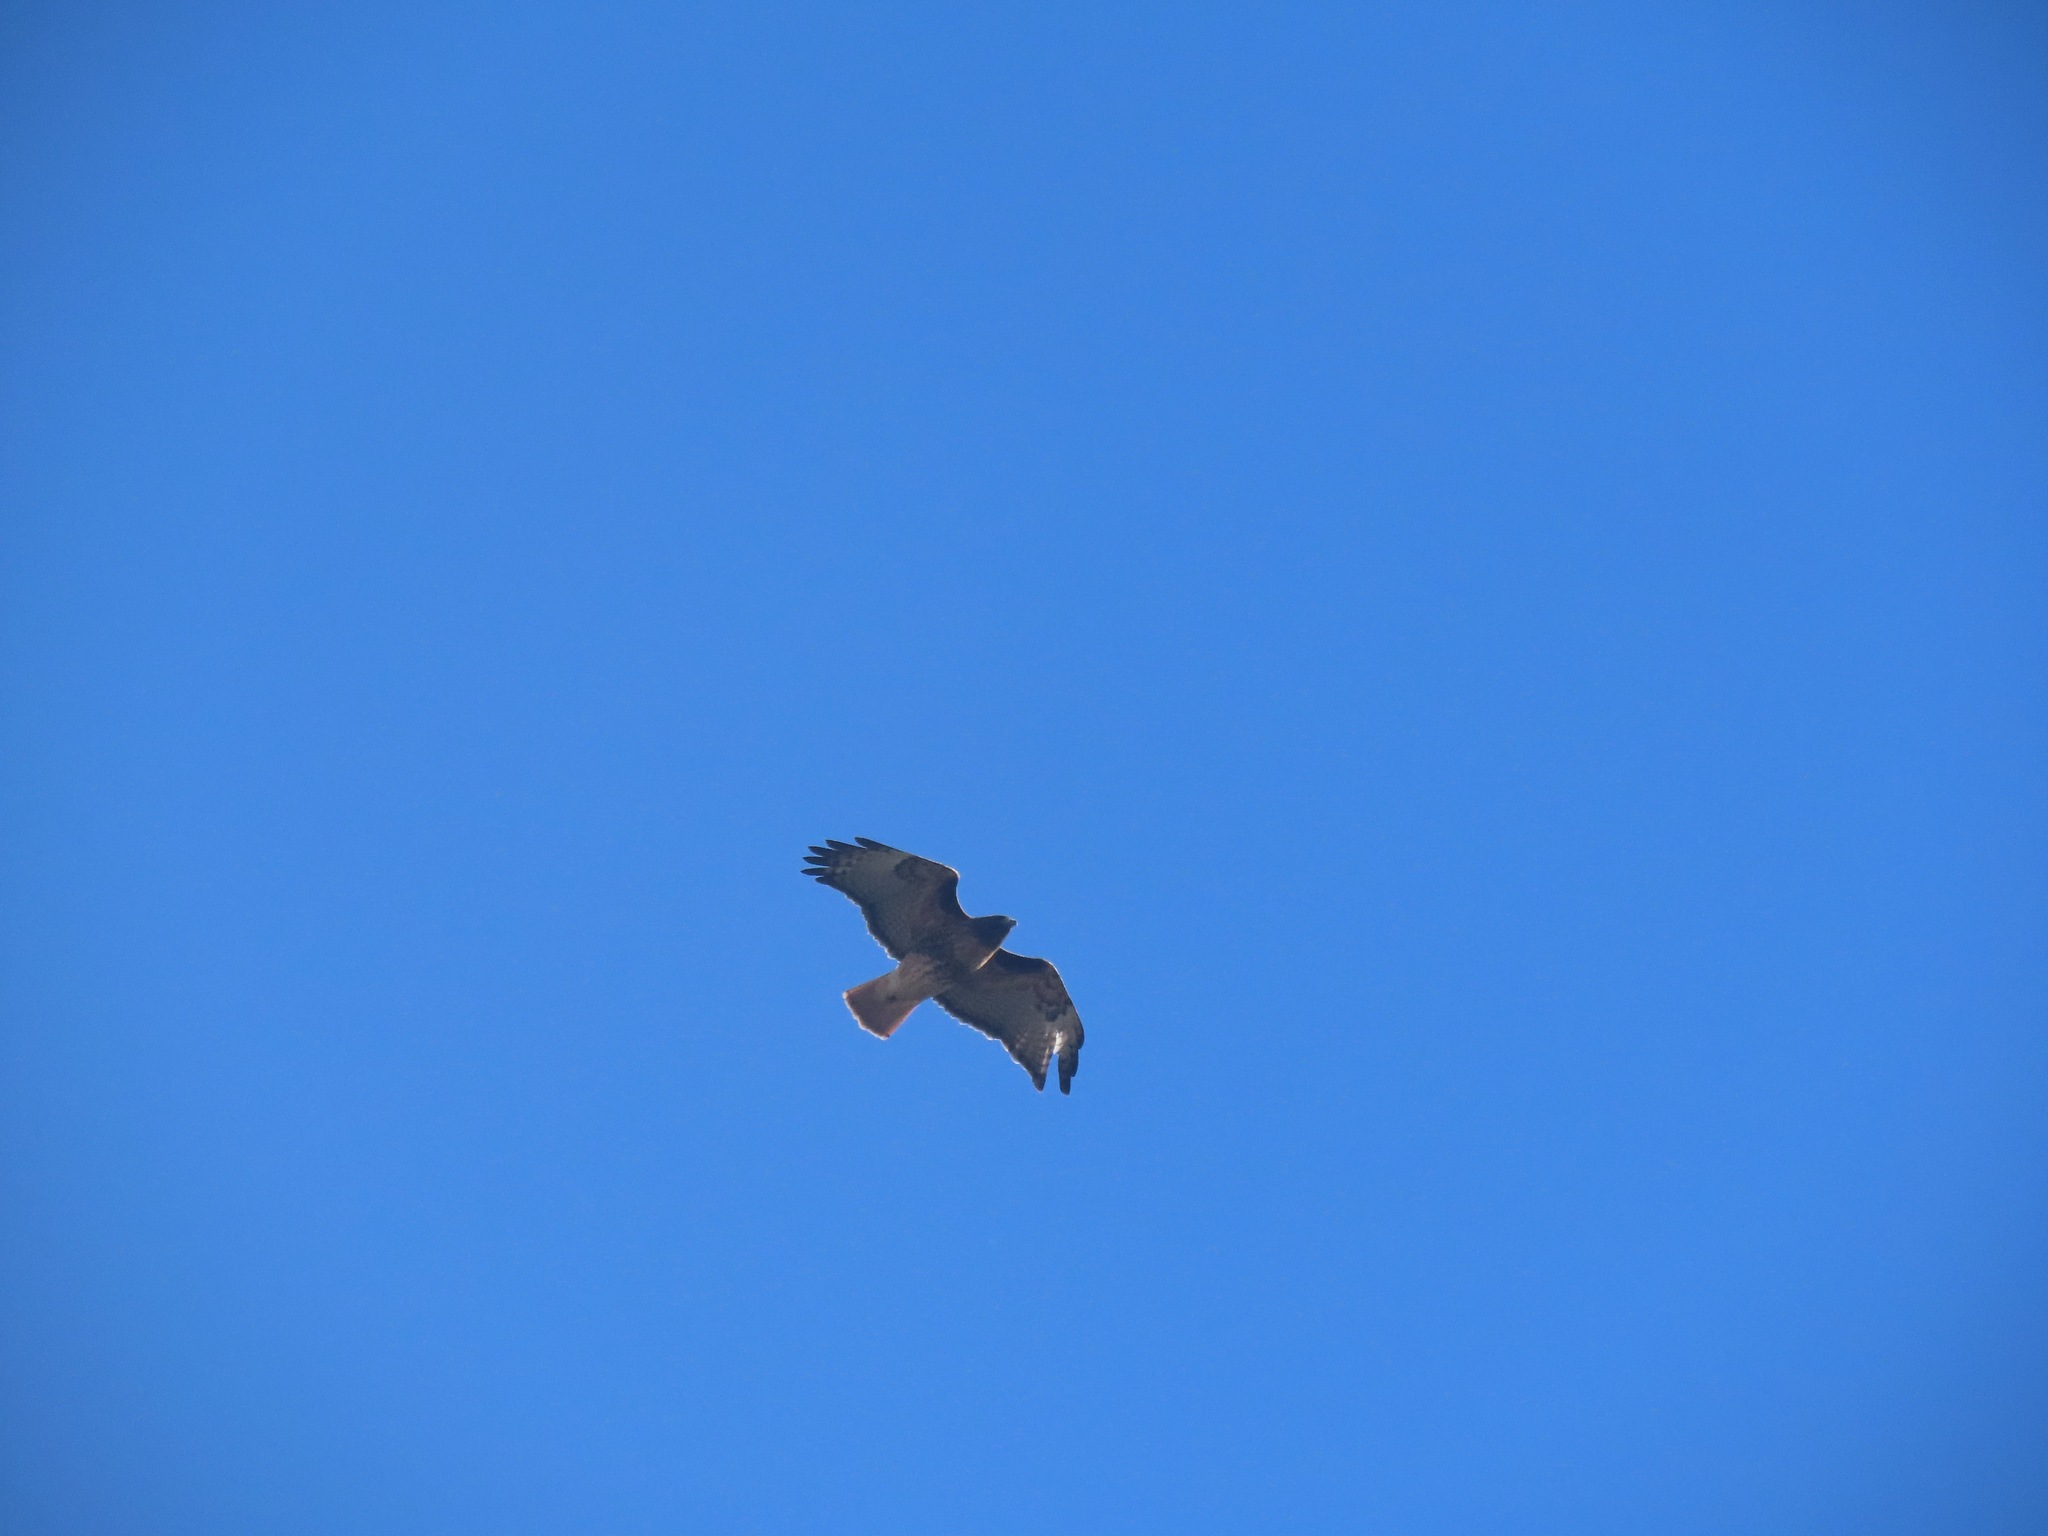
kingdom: Animalia
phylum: Chordata
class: Aves
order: Accipitriformes
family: Accipitridae
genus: Buteo
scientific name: Buteo jamaicensis
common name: Red-tailed hawk
